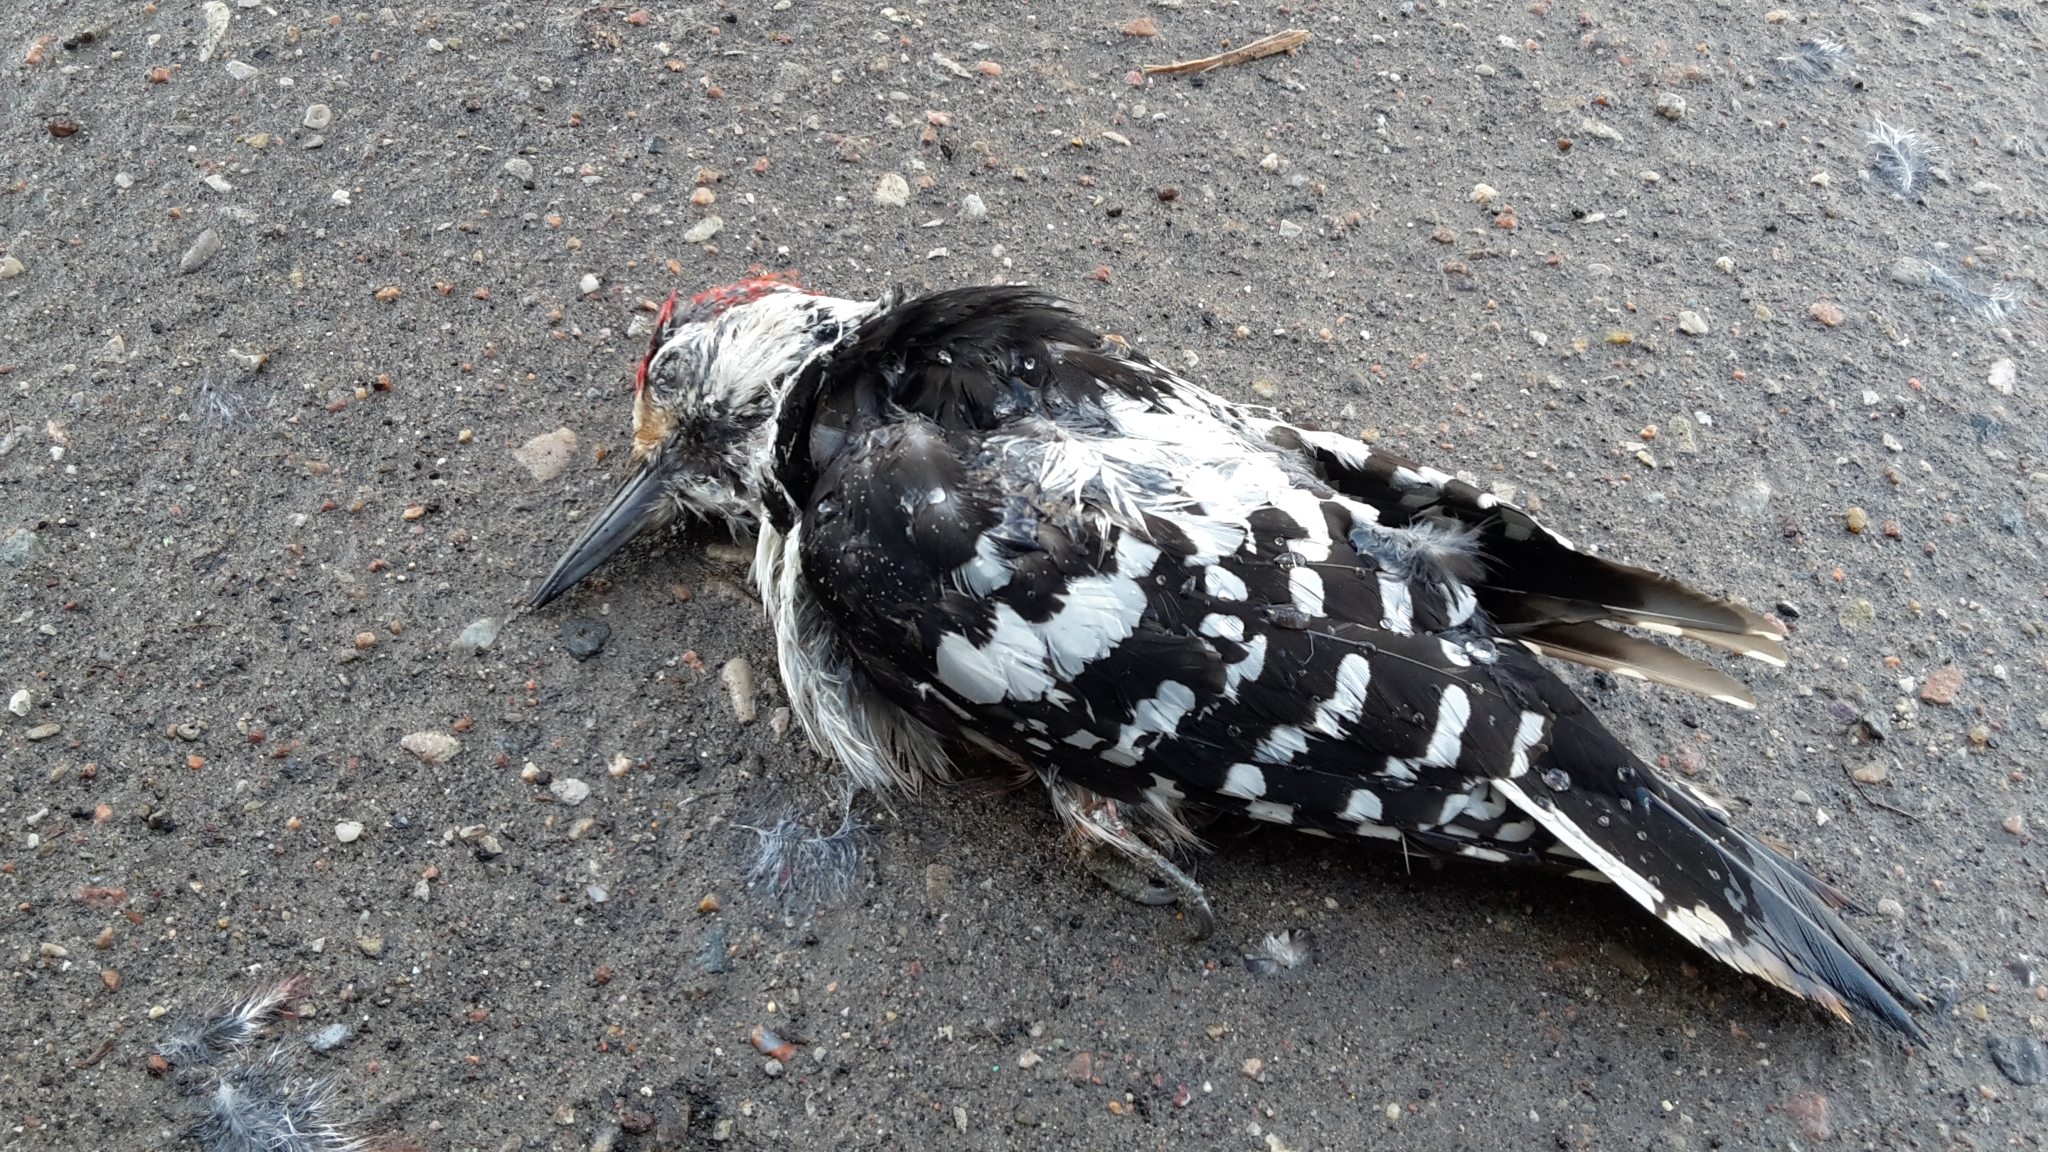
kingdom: Animalia
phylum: Chordata
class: Aves
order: Piciformes
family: Picidae
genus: Dendrocopos
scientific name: Dendrocopos leucotos
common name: White-backed woodpecker
